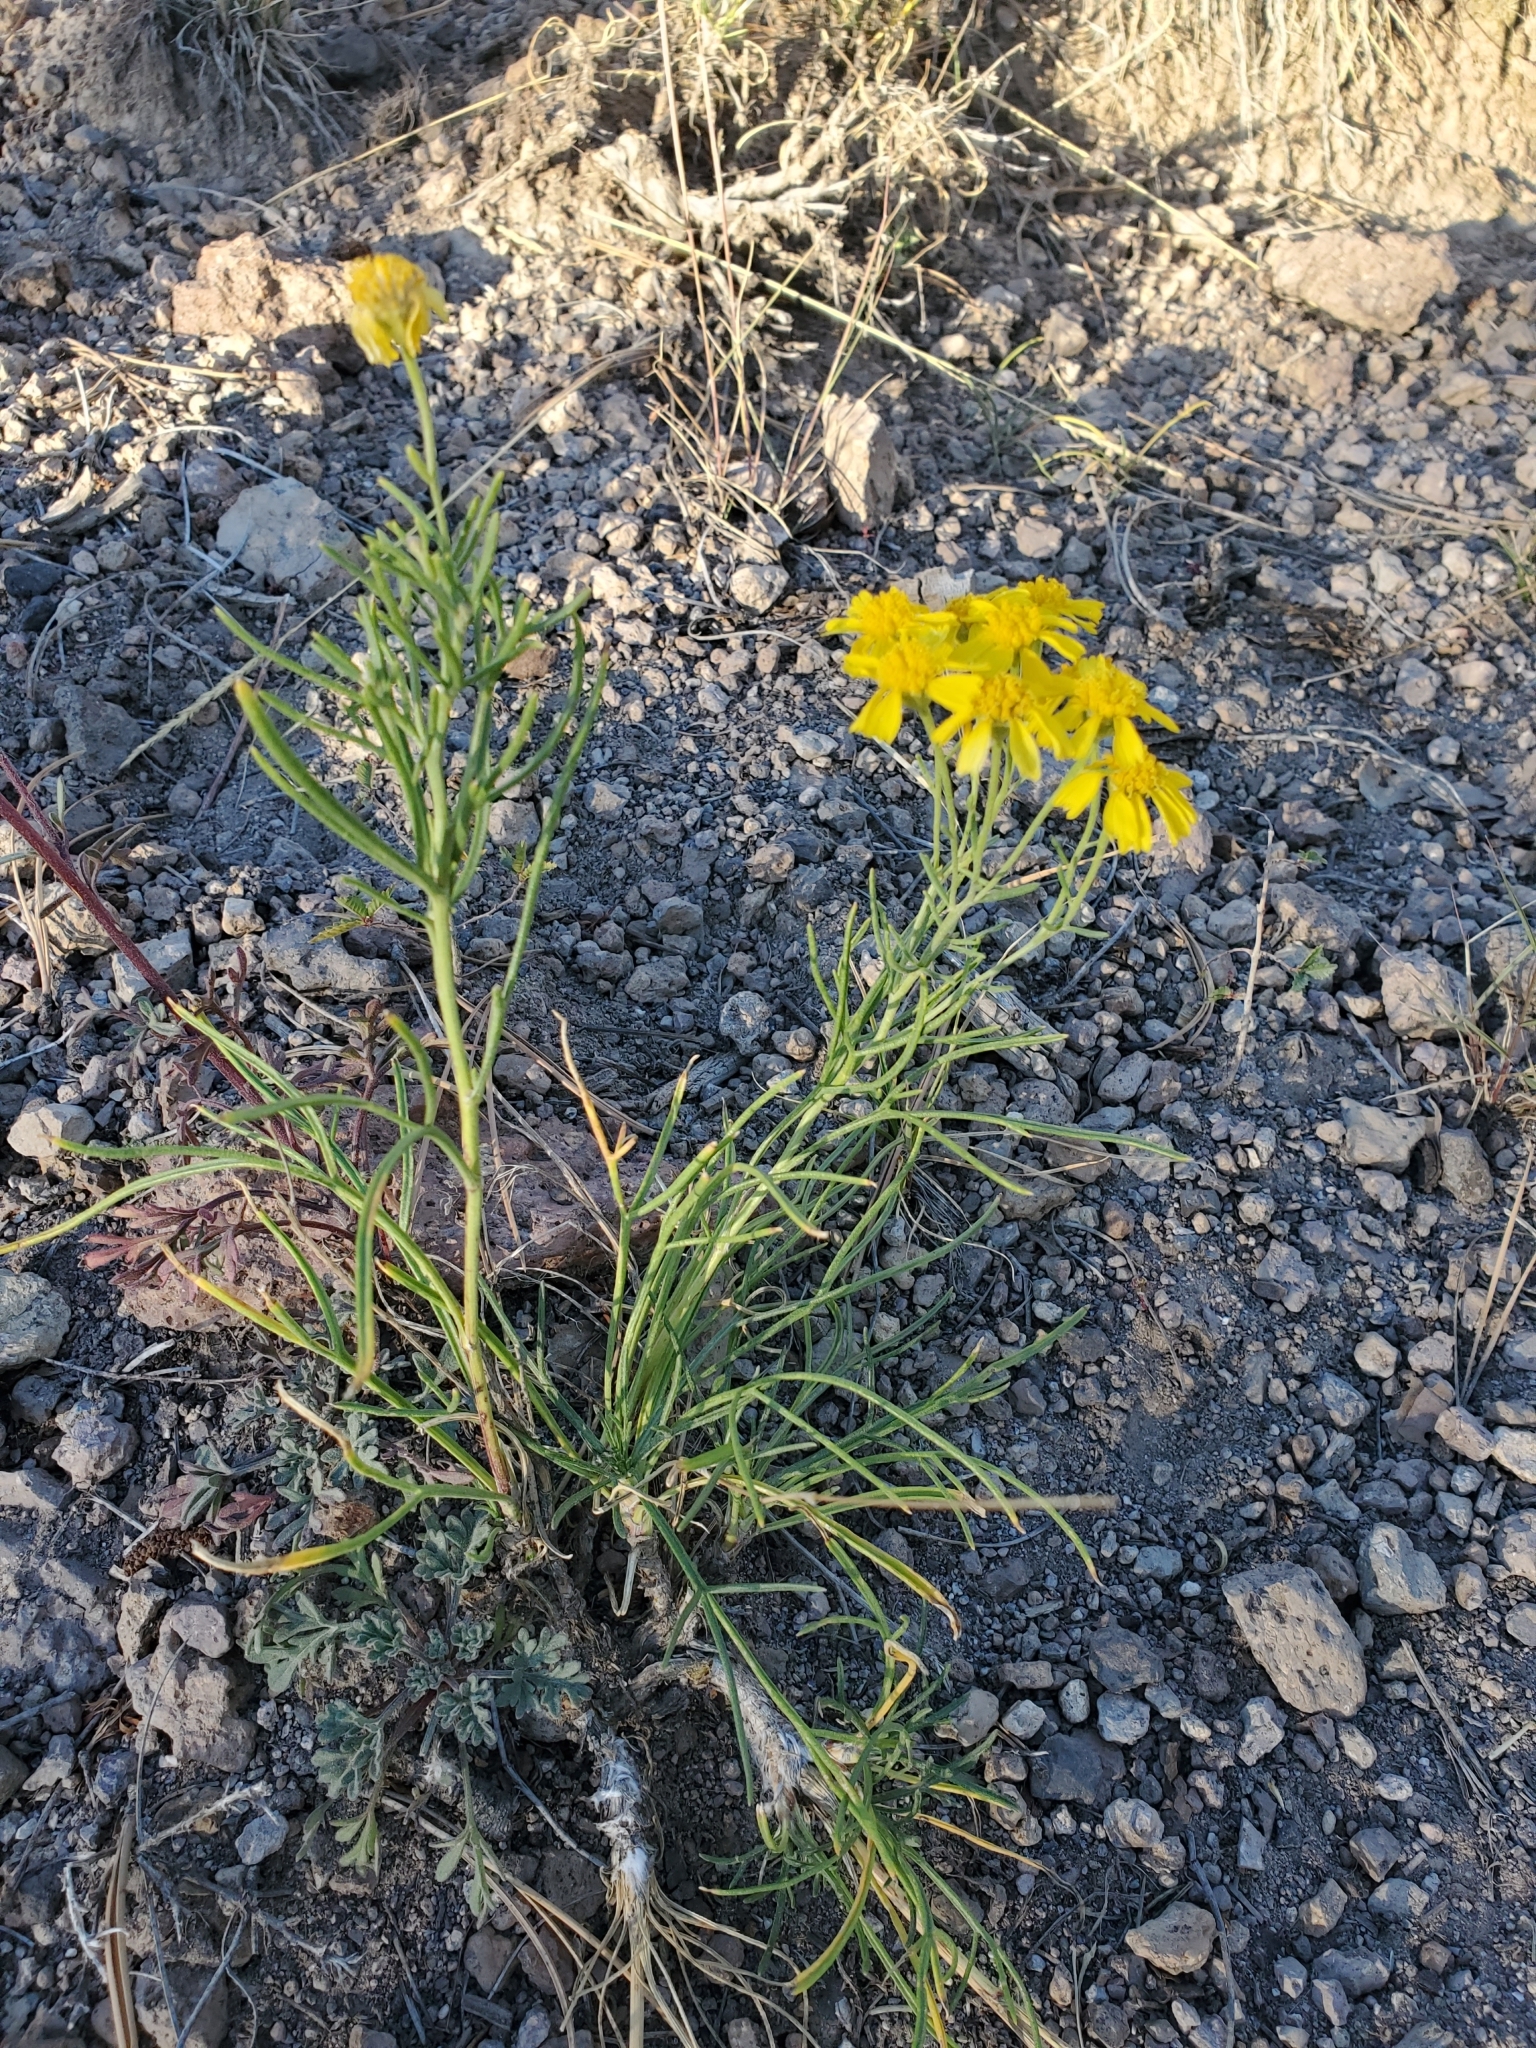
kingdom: Plantae
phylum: Tracheophyta
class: Magnoliopsida
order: Asterales
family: Asteraceae
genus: Hymenoxys
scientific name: Hymenoxys richardsonii
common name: Pingue rubberweed
